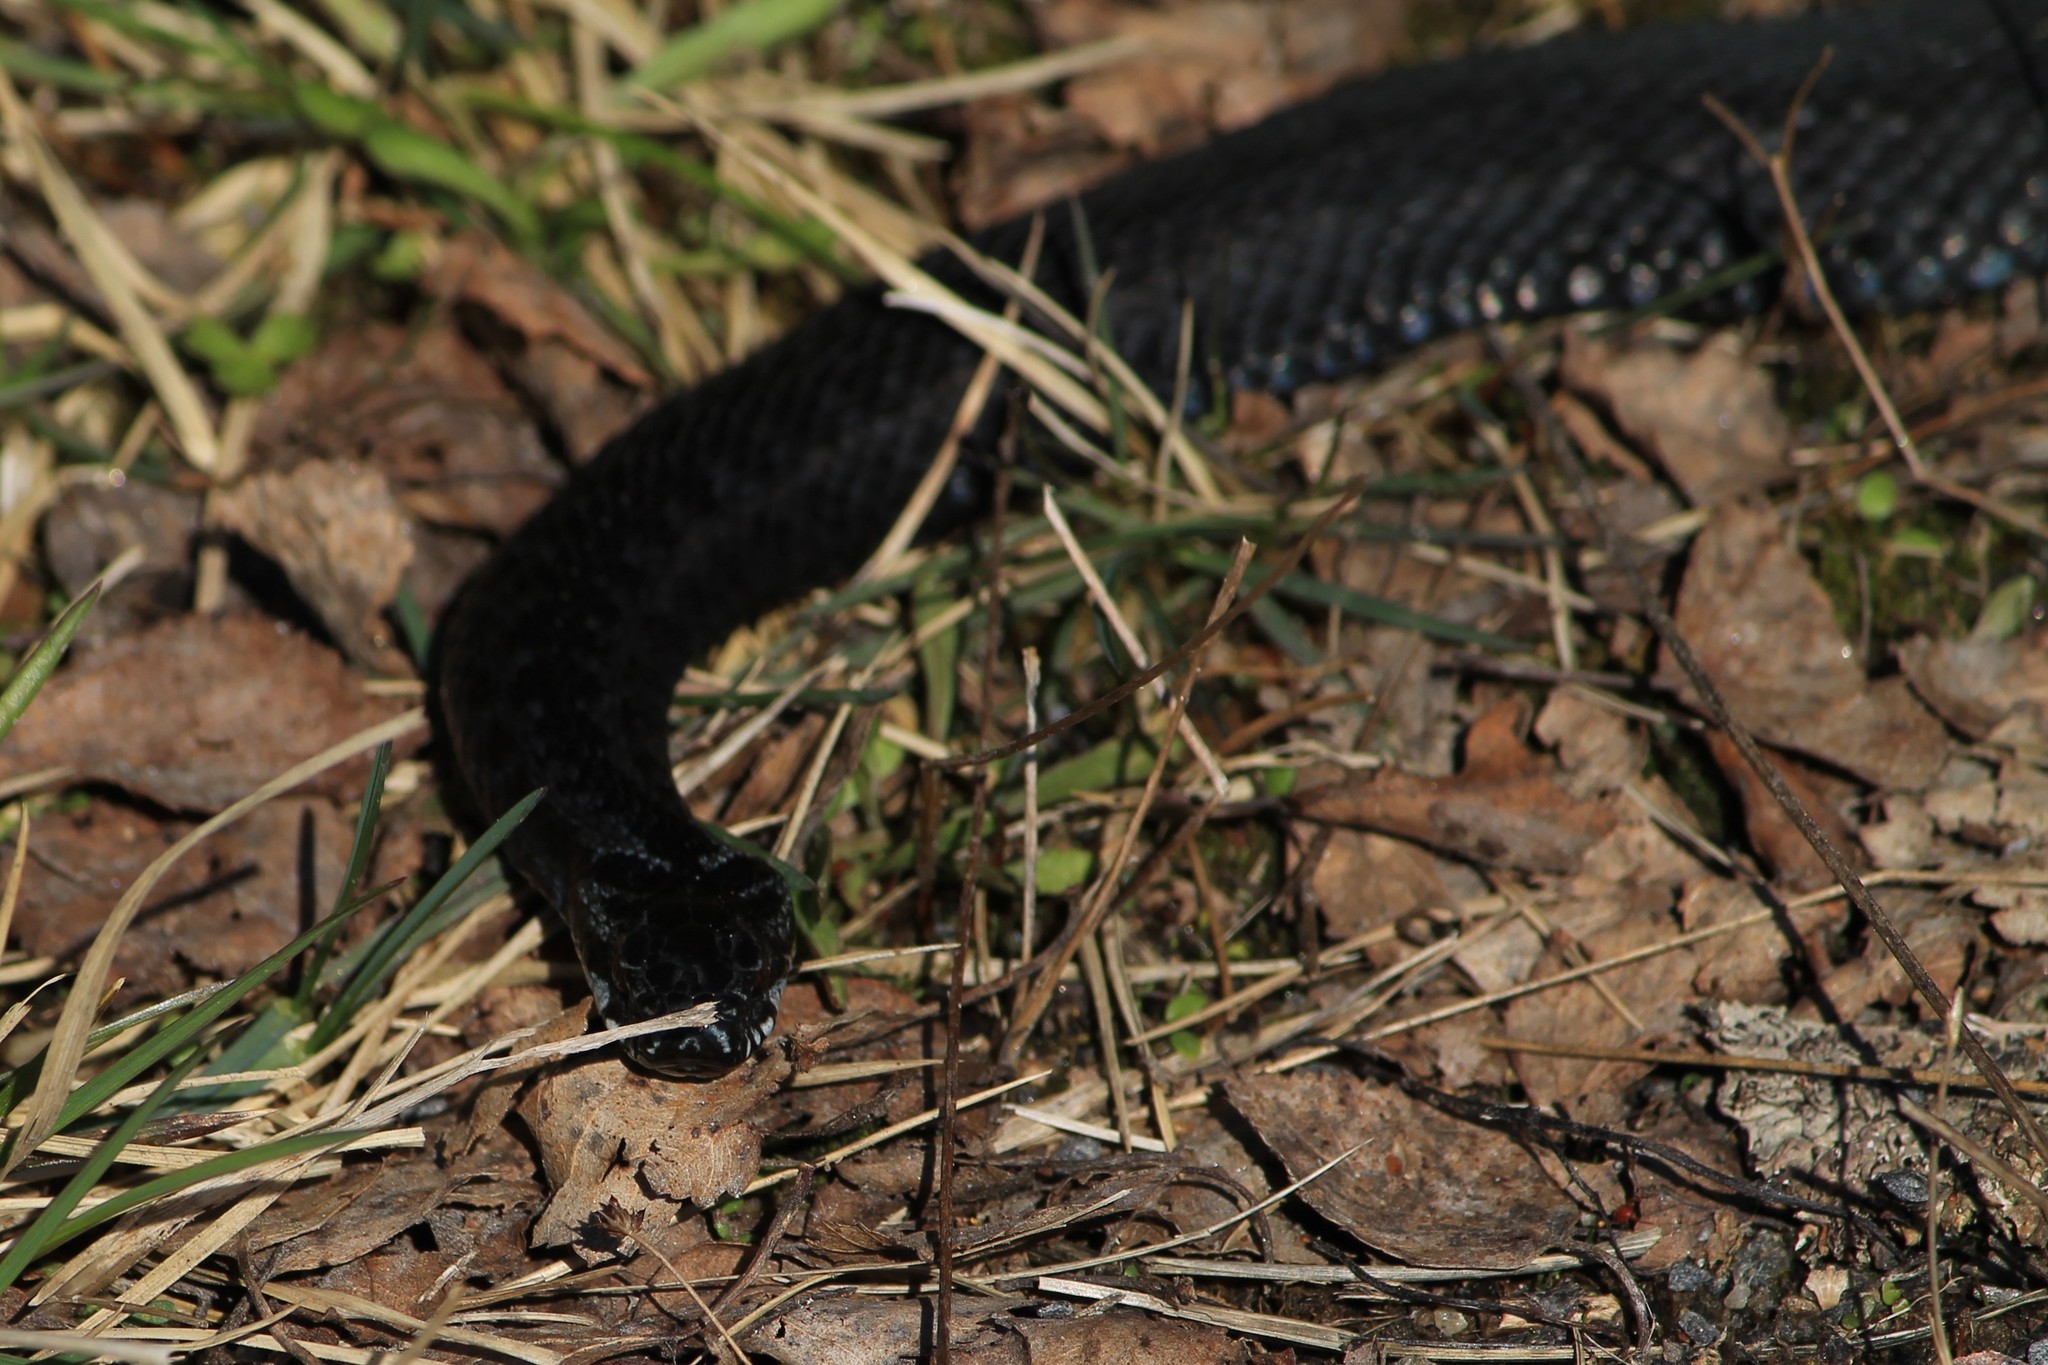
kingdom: Animalia
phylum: Chordata
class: Squamata
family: Viperidae
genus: Vipera
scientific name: Vipera berus
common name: Adder
